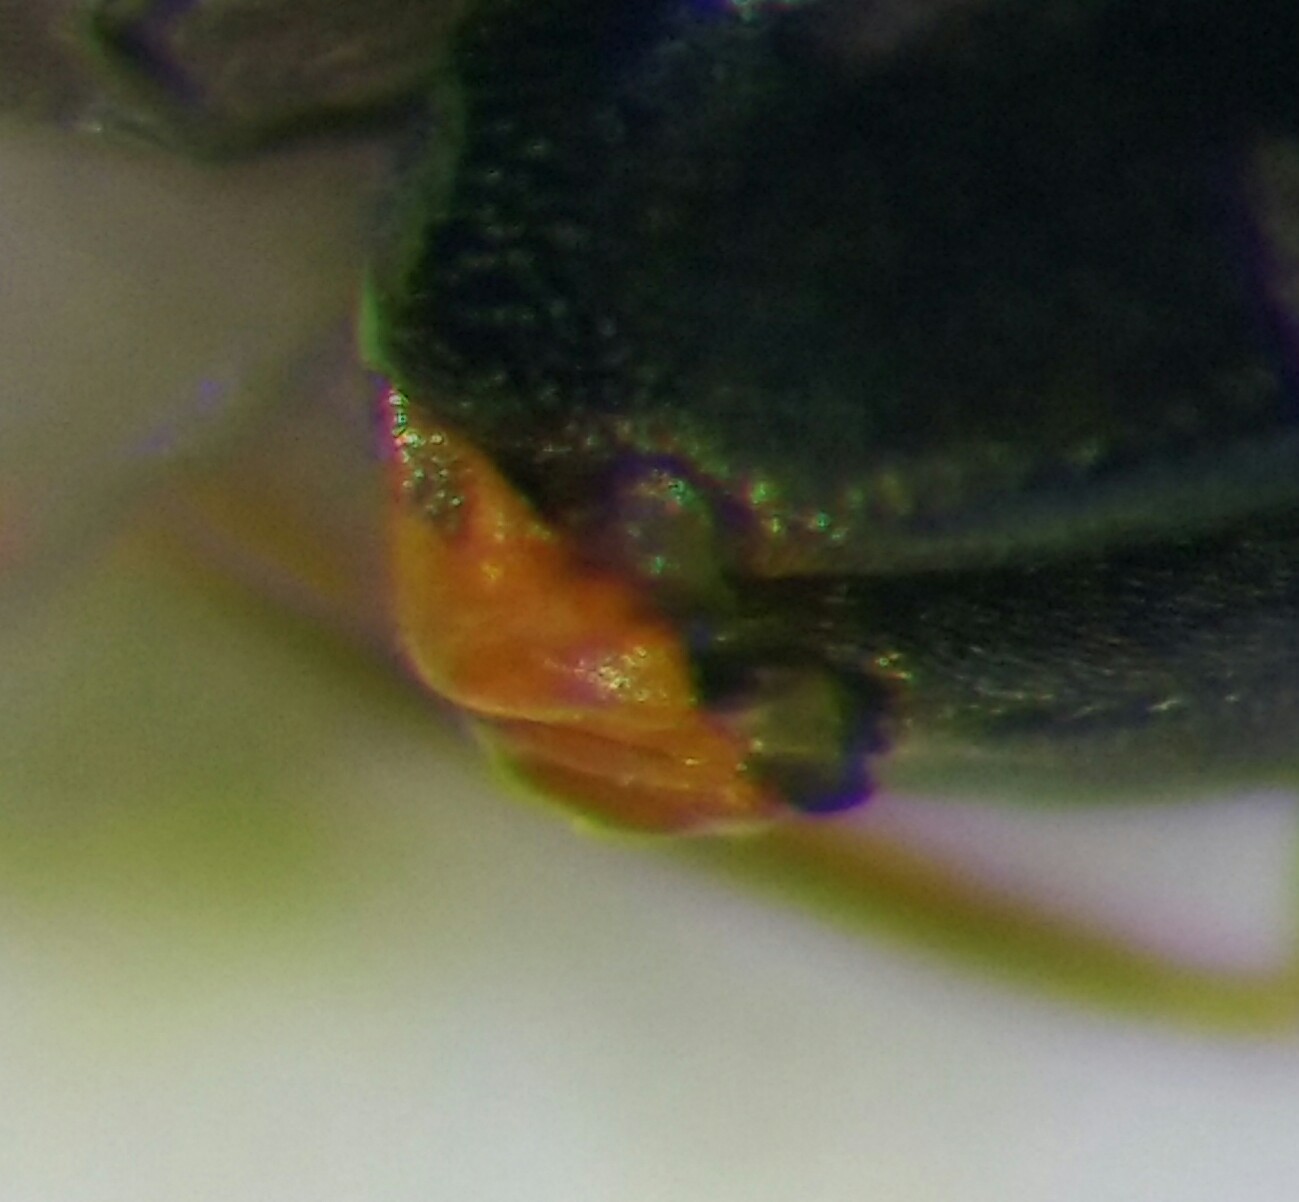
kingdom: Animalia
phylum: Arthropoda
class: Insecta
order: Coleoptera
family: Malachiidae
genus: Ebaeus
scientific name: Ebaeus flavicornis
